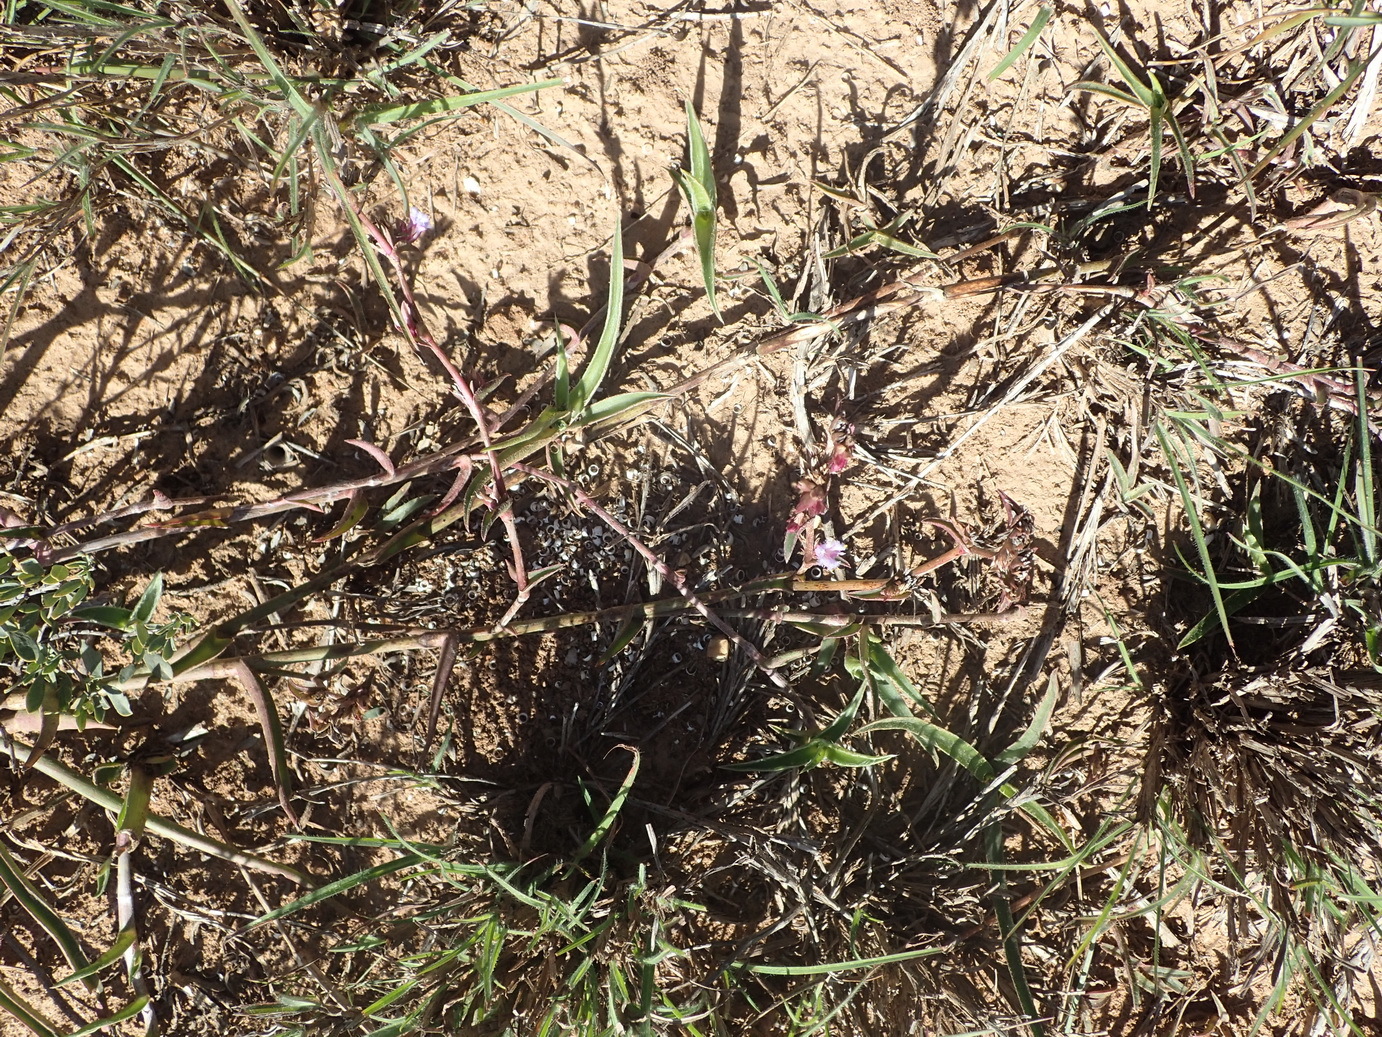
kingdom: Plantae
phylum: Tracheophyta
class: Liliopsida
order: Commelinales
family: Commelinaceae
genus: Cyanotis
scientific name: Cyanotis speciosa
